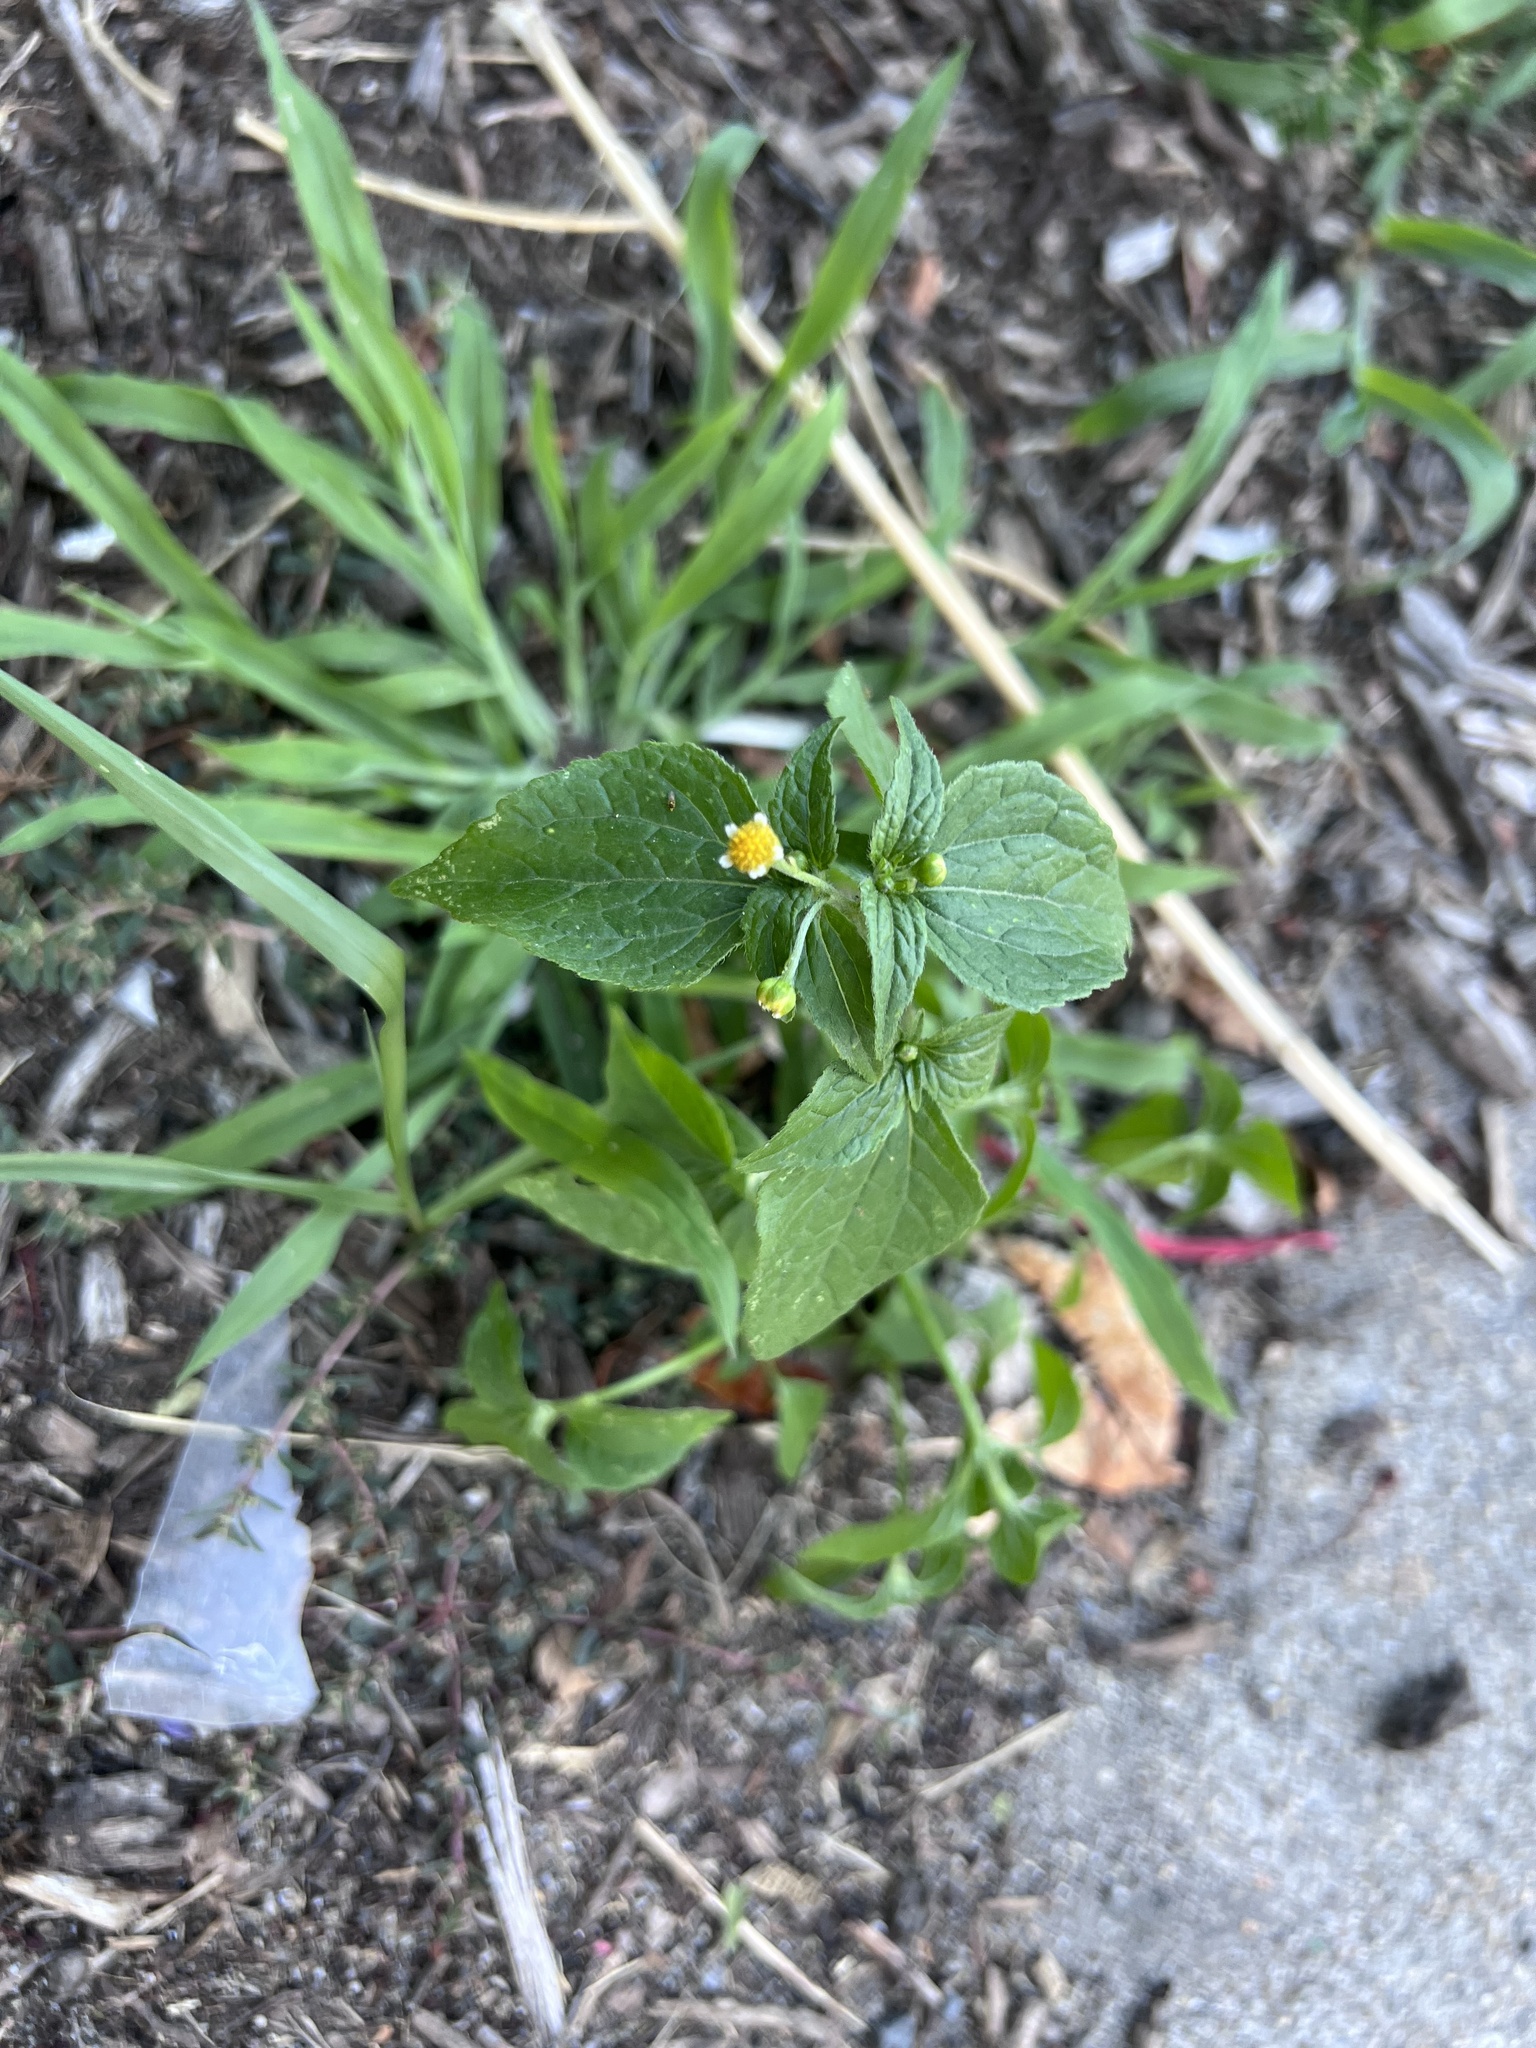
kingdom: Plantae
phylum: Tracheophyta
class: Magnoliopsida
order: Asterales
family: Asteraceae
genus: Galinsoga
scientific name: Galinsoga parviflora
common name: Gallant soldier
